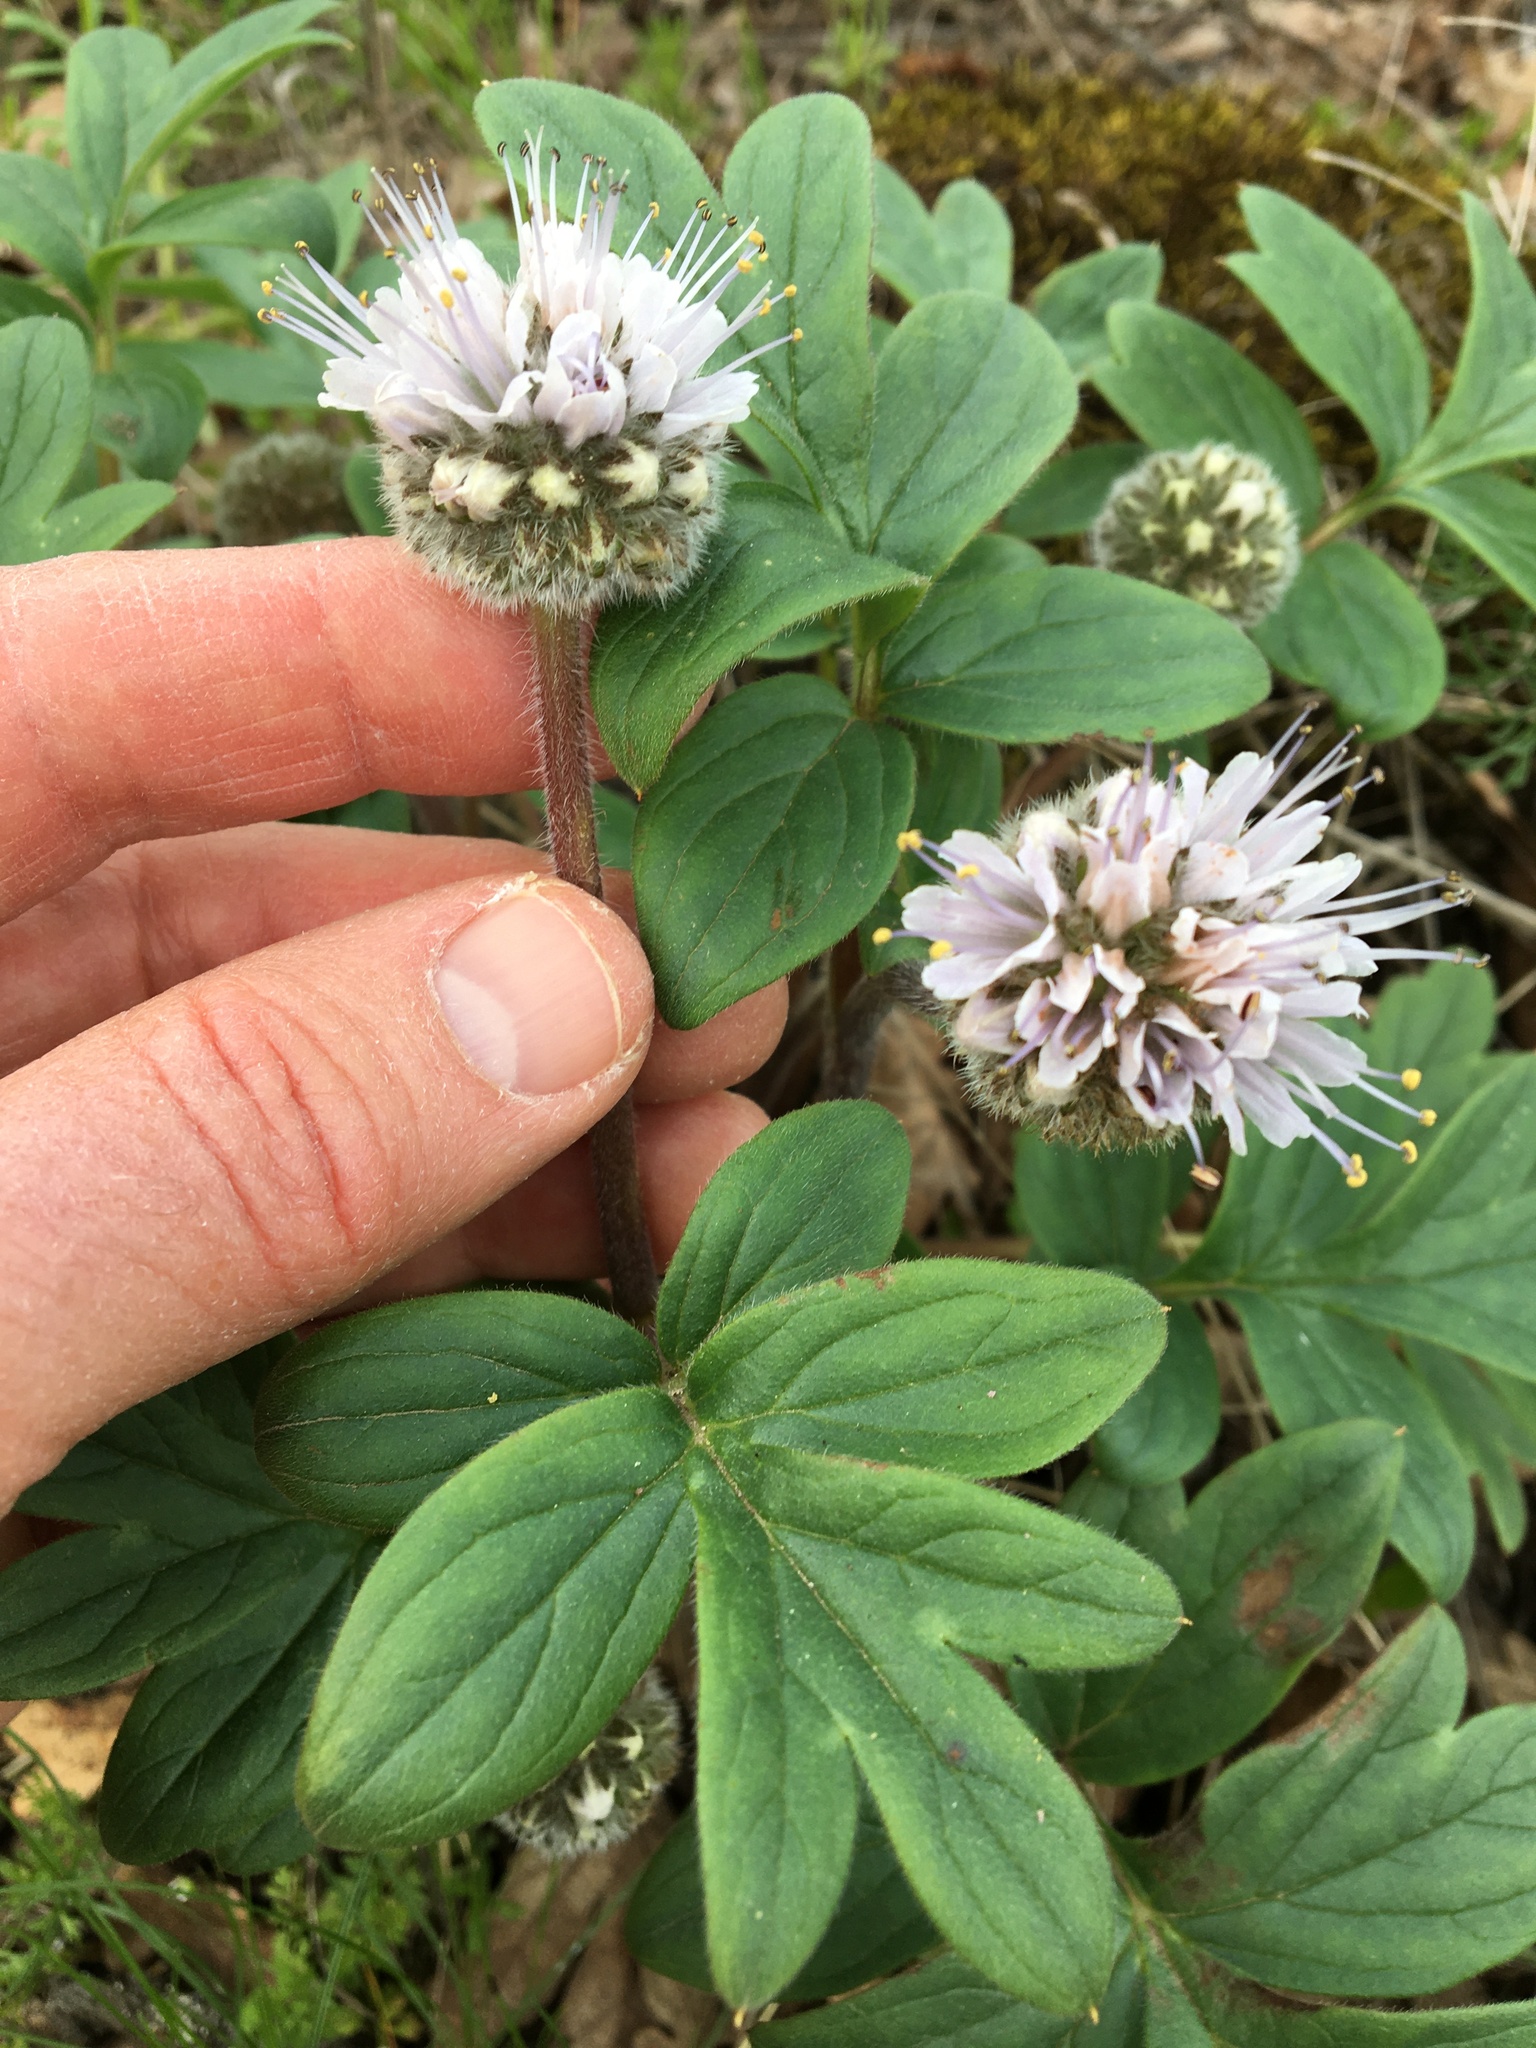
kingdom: Plantae
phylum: Tracheophyta
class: Magnoliopsida
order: Boraginales
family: Hydrophyllaceae
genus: Hydrophyllum
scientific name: Hydrophyllum capitatum
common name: Woollen-breeches
